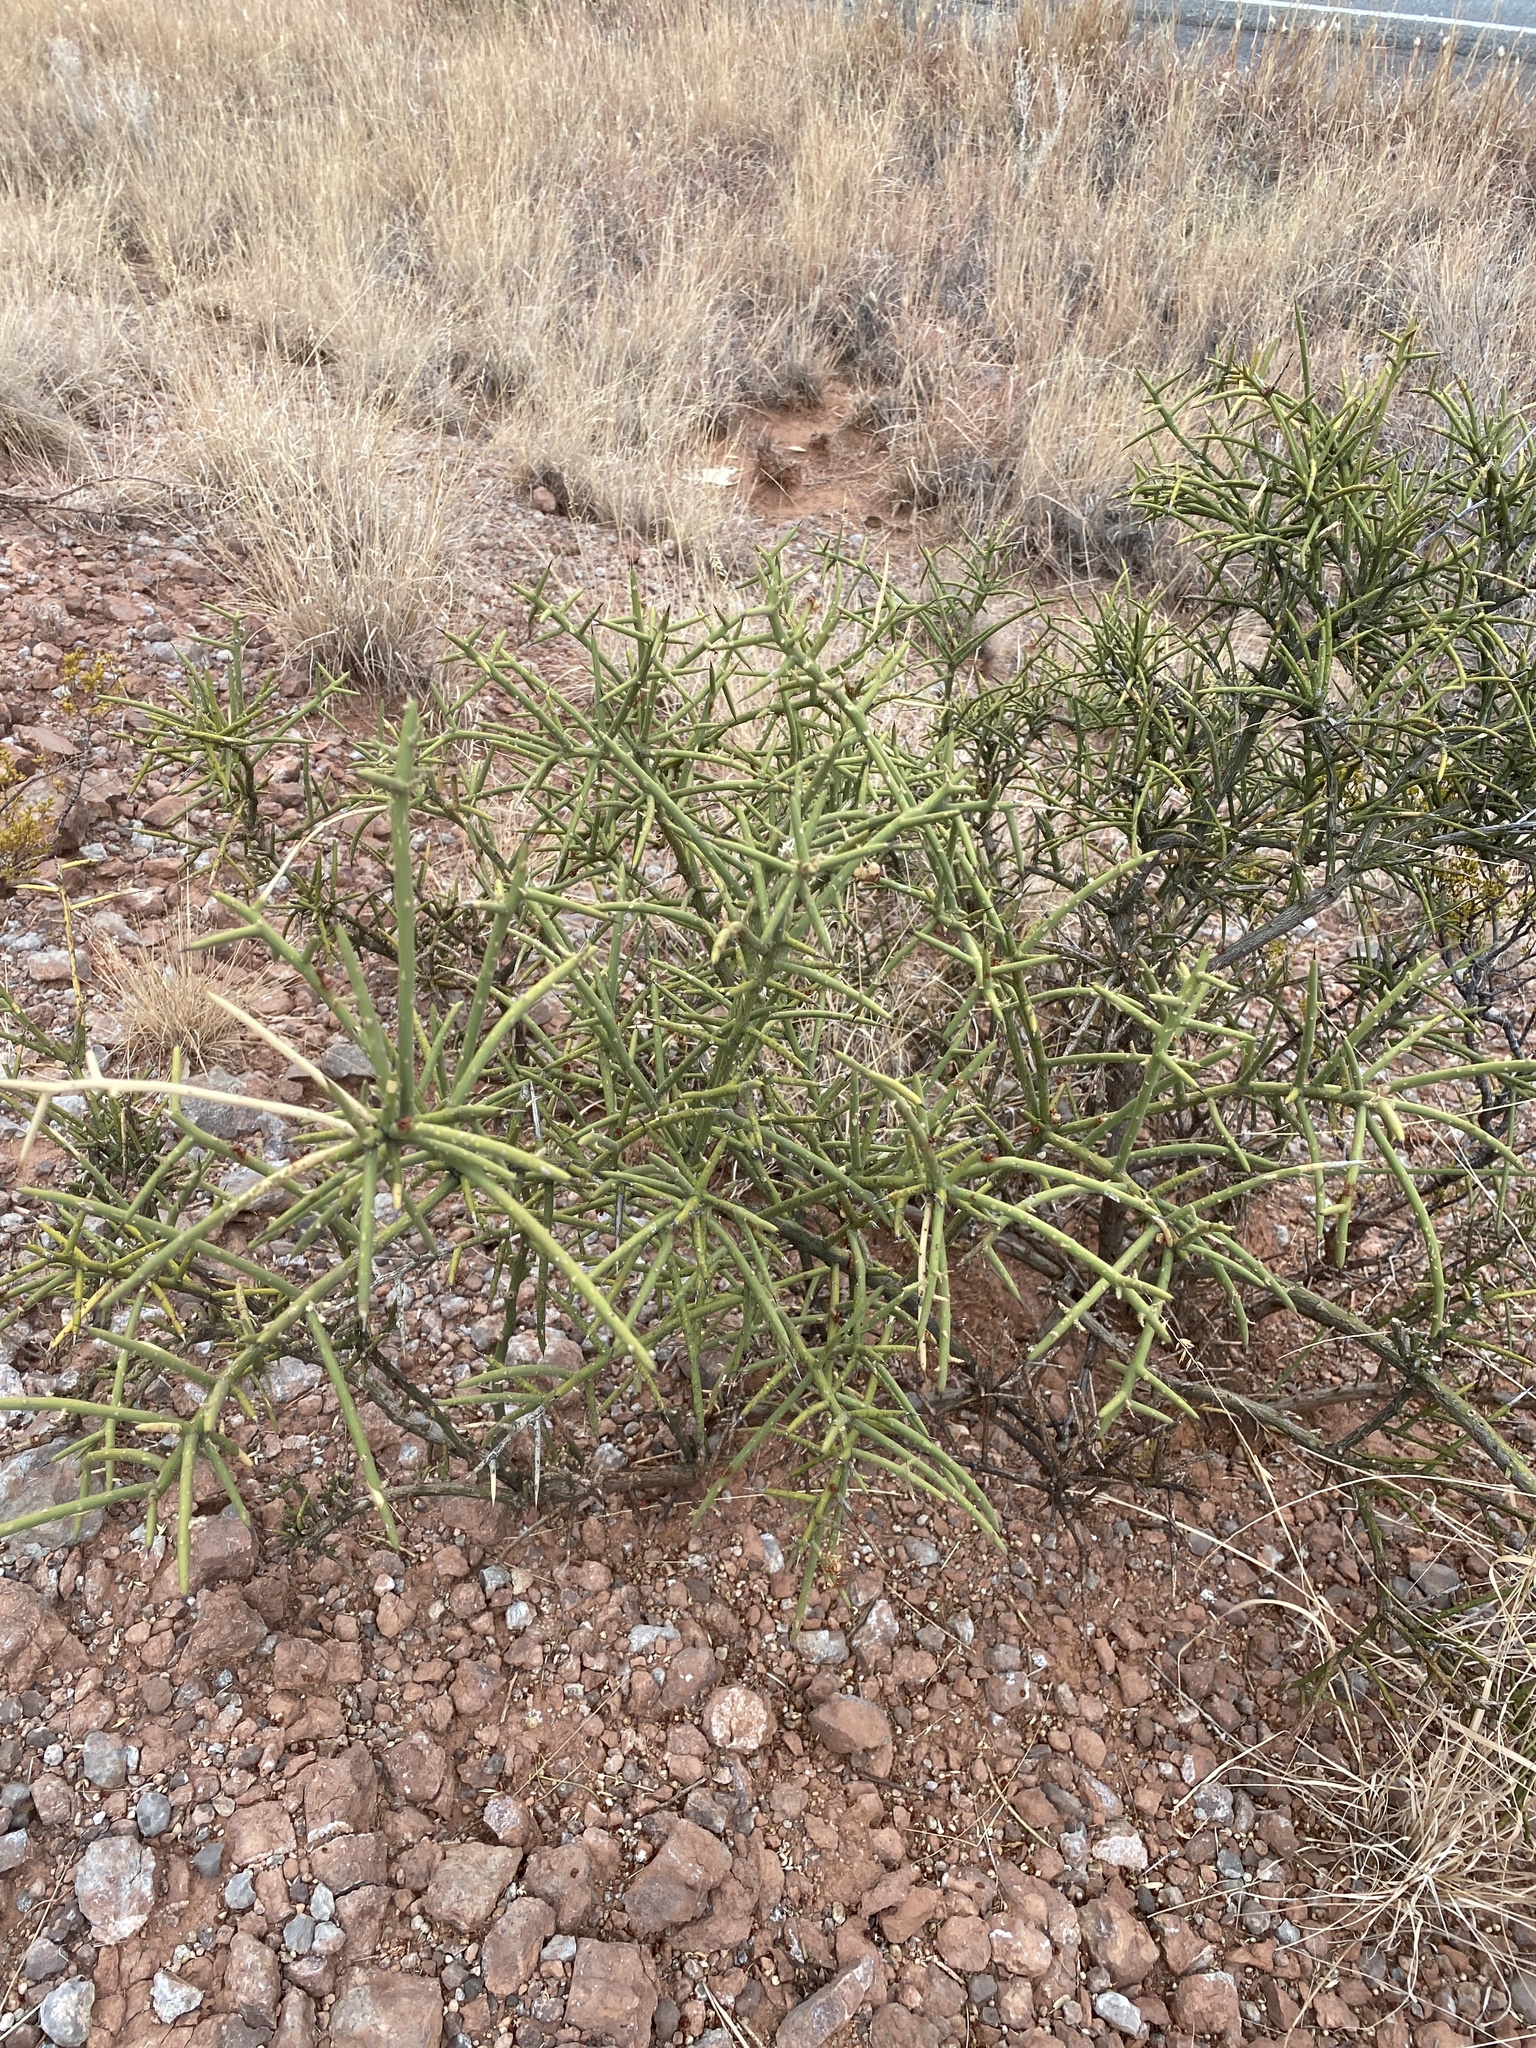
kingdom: Plantae
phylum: Tracheophyta
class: Magnoliopsida
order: Brassicales
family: Koeberliniaceae
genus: Koeberlinia
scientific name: Koeberlinia spinosa
